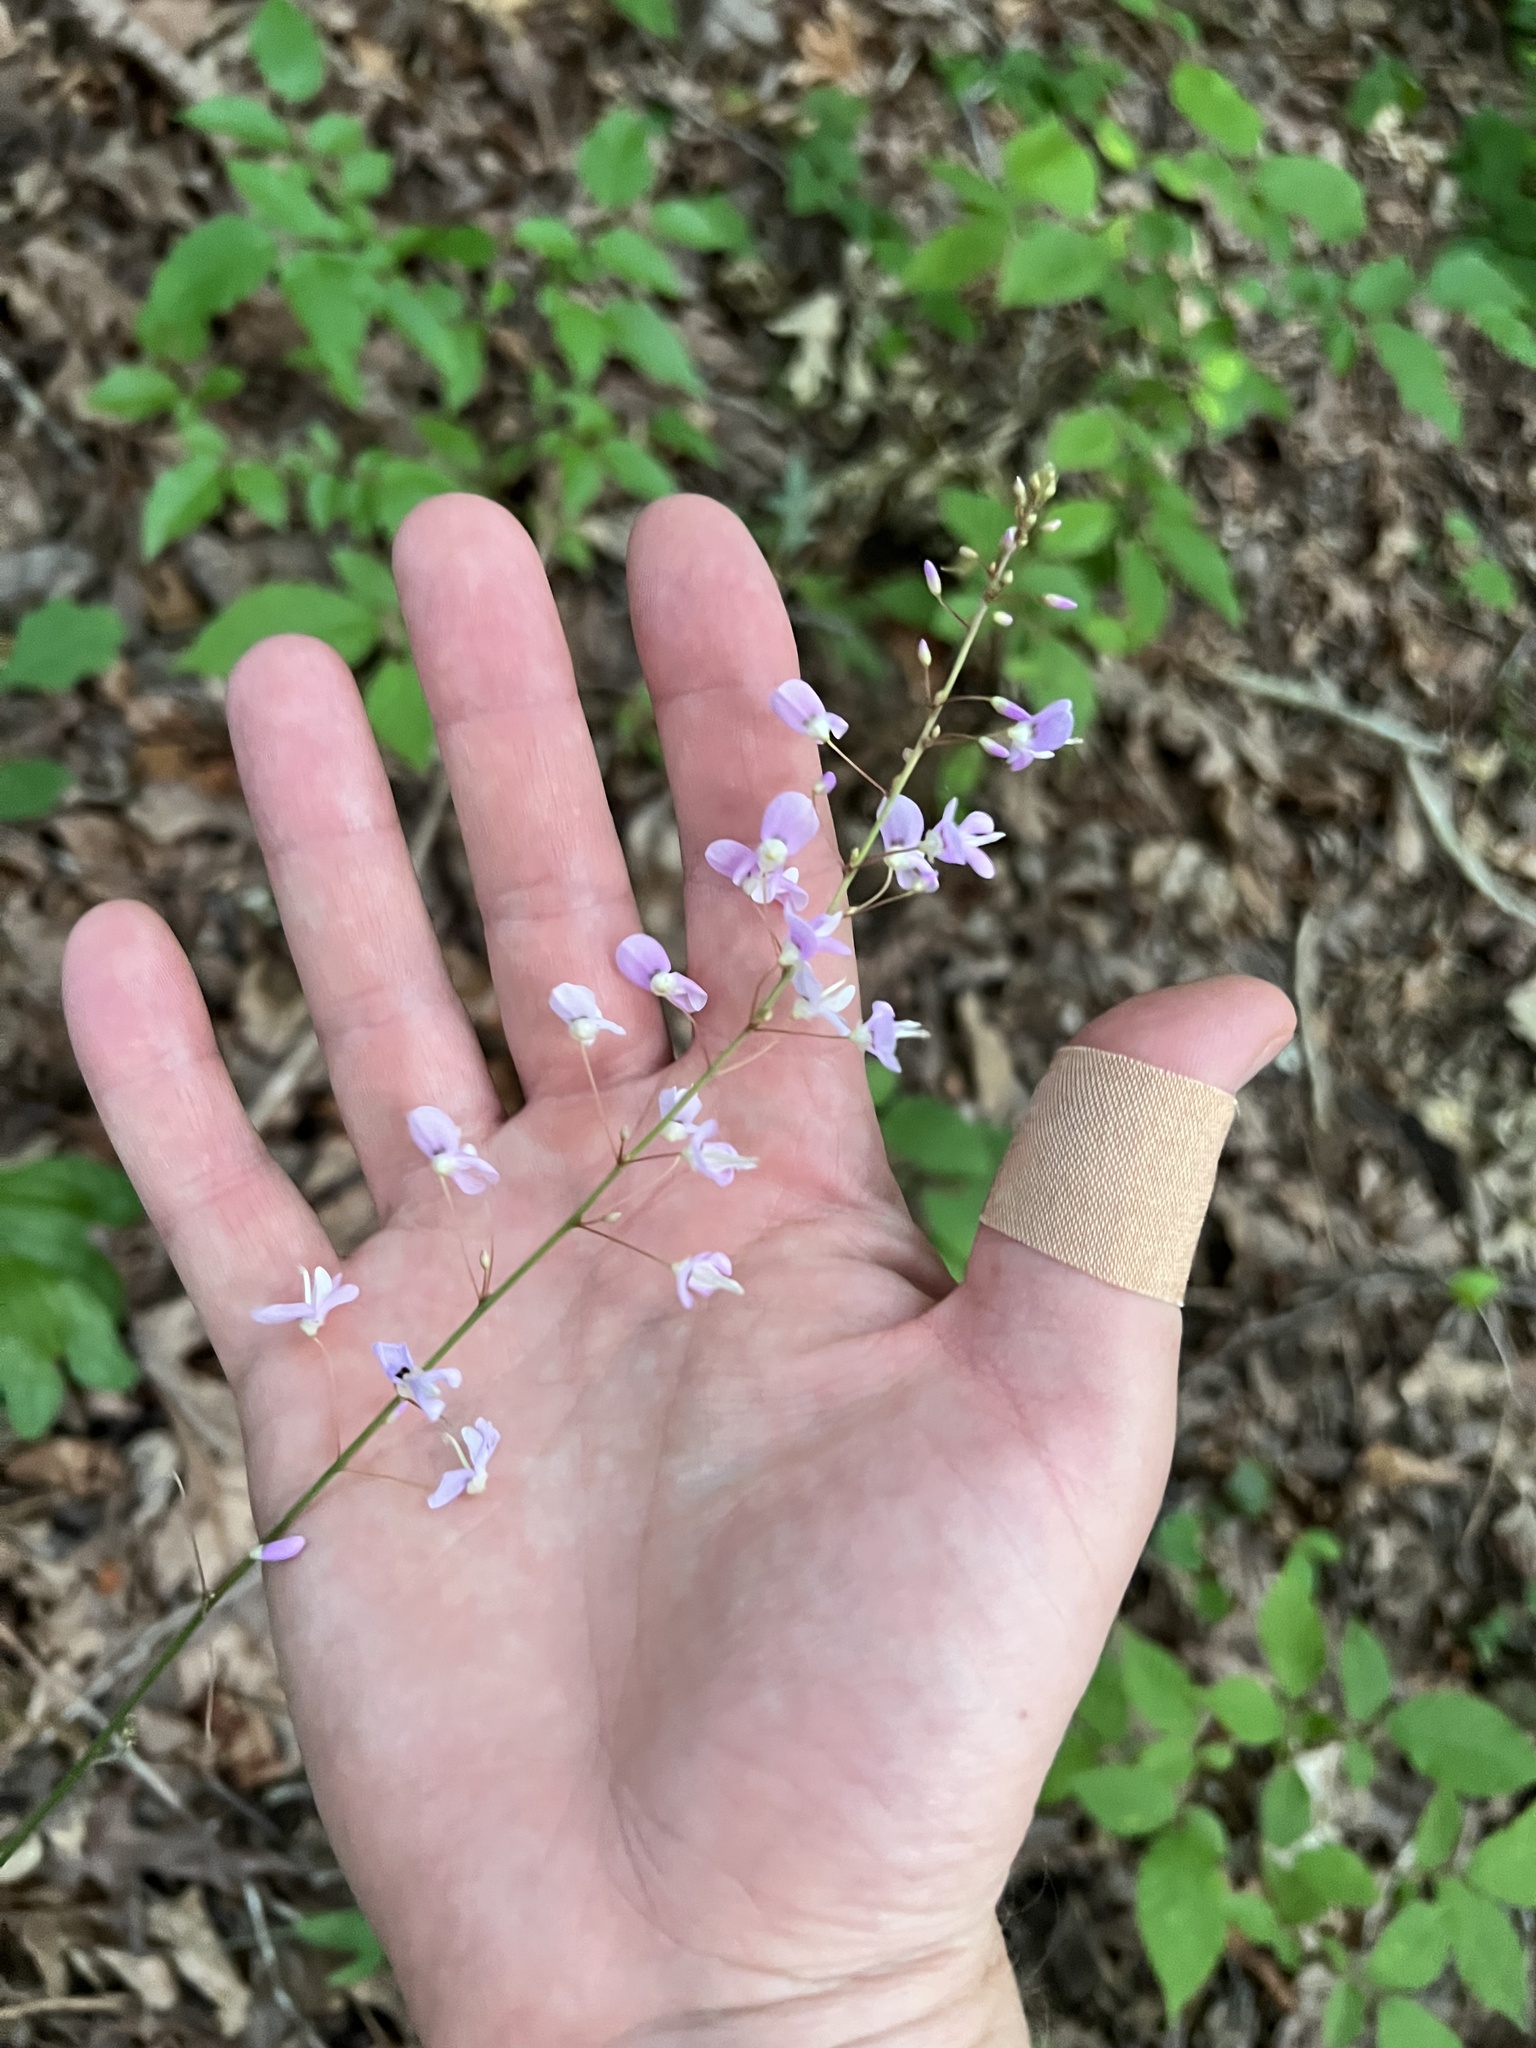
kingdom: Plantae
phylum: Tracheophyta
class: Magnoliopsida
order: Fabales
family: Fabaceae
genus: Hylodesmum
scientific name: Hylodesmum nudiflorum
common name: Bare-stemmed tick-trefoil
